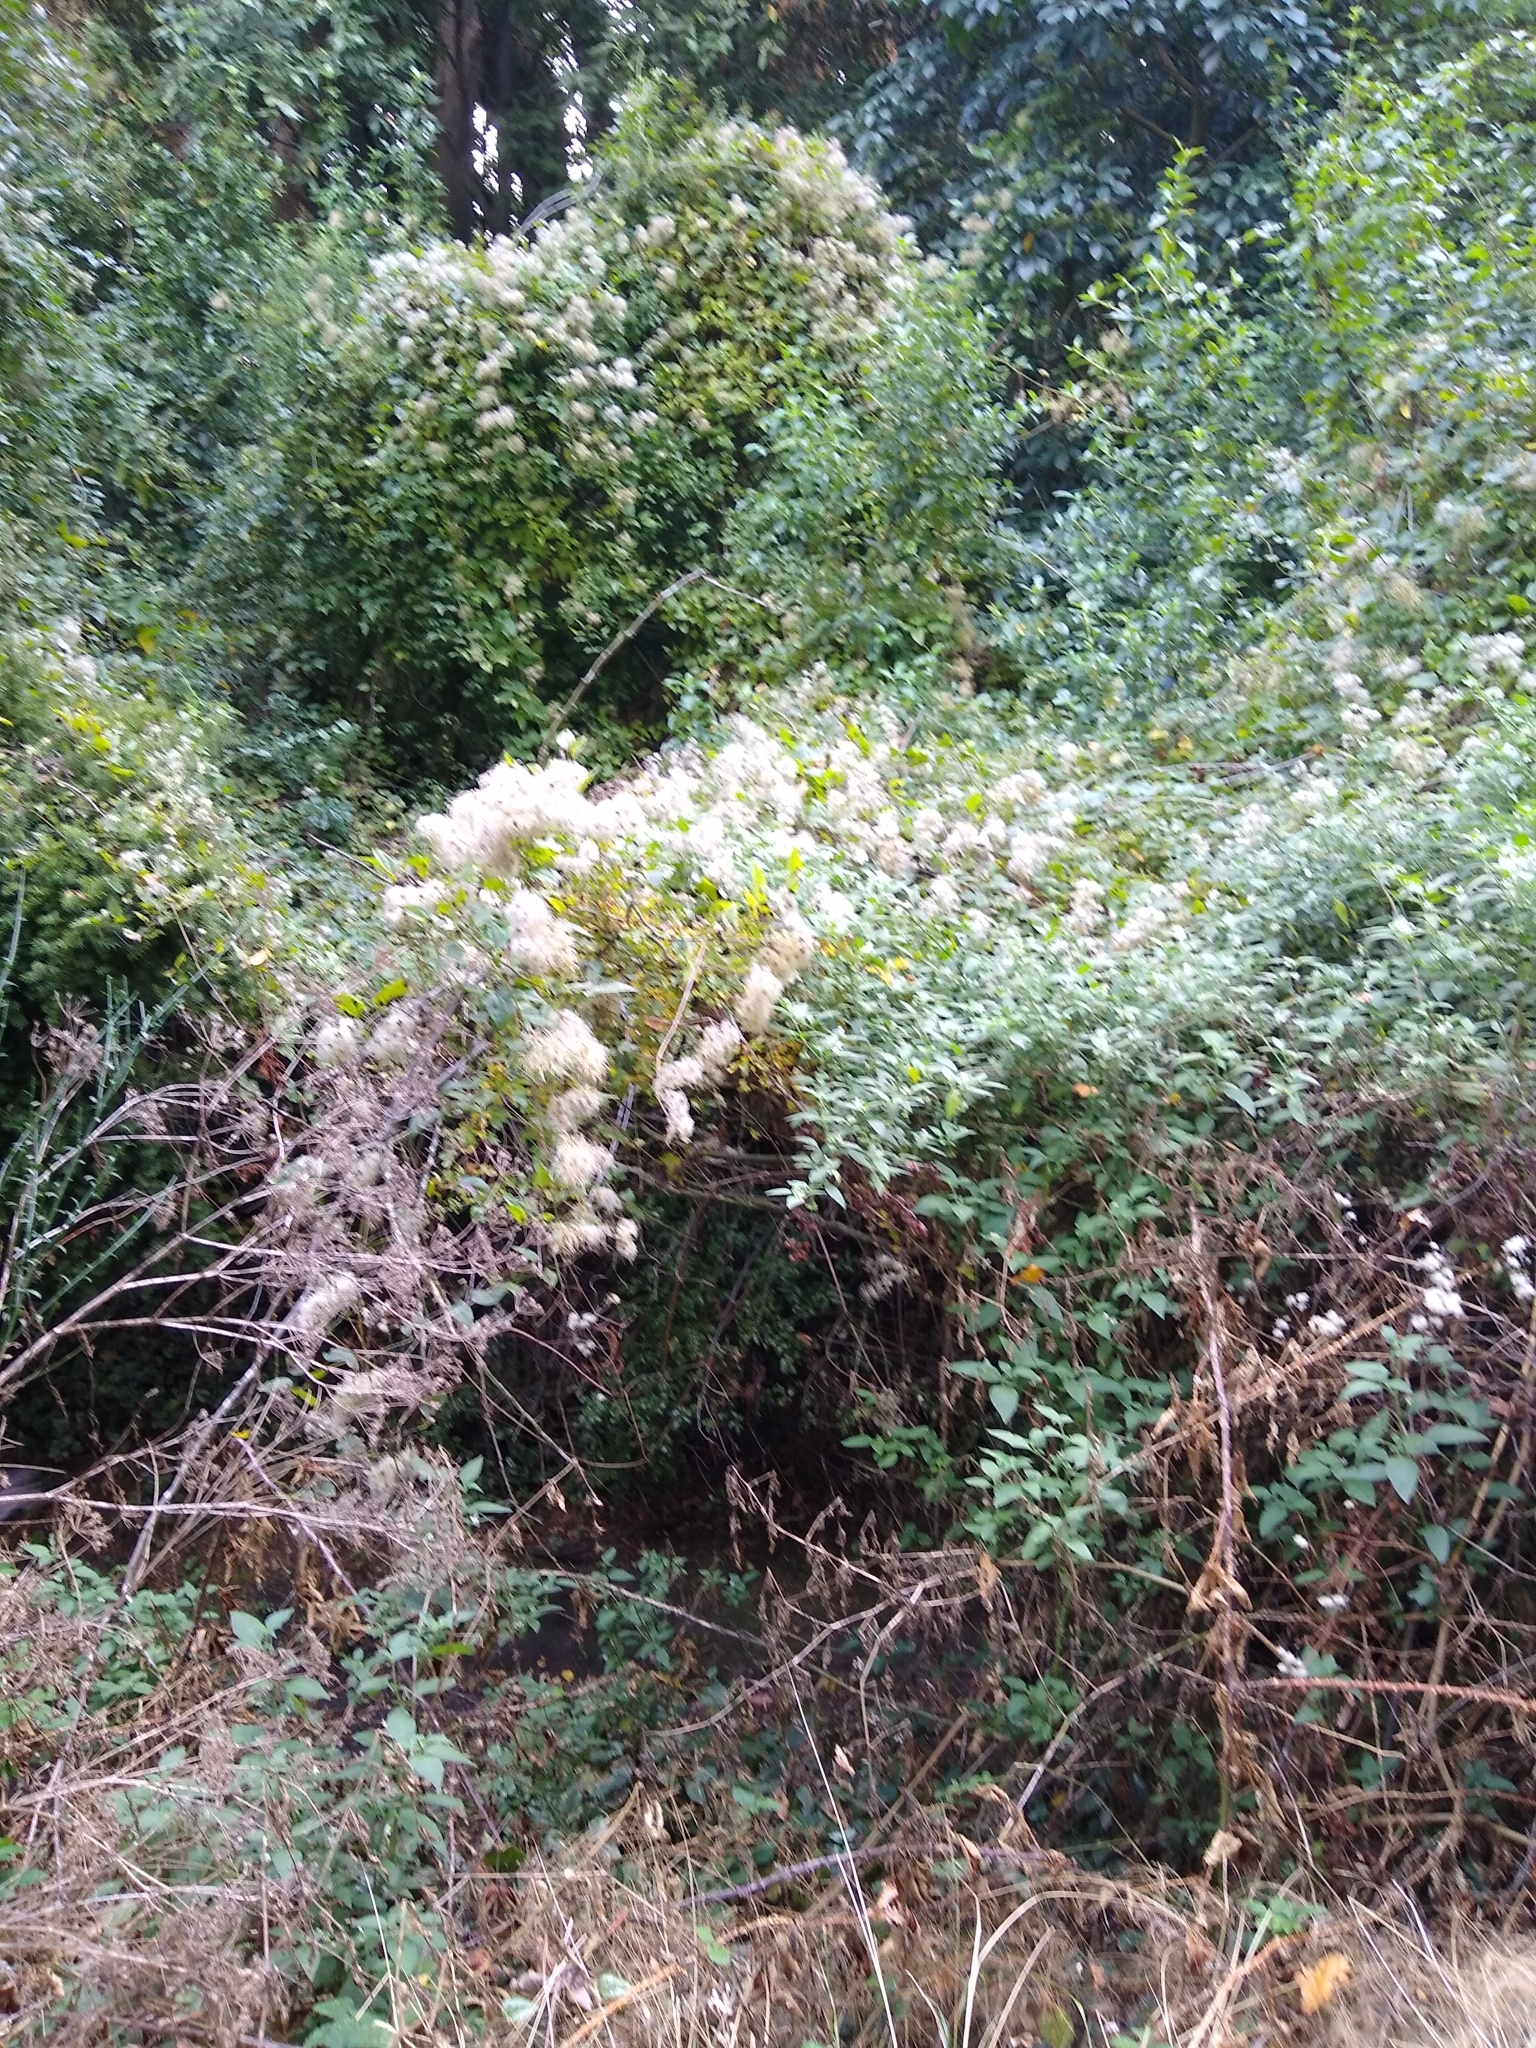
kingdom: Plantae
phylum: Tracheophyta
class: Magnoliopsida
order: Ranunculales
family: Ranunculaceae
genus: Clematis
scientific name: Clematis vitalba
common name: Evergreen clematis
